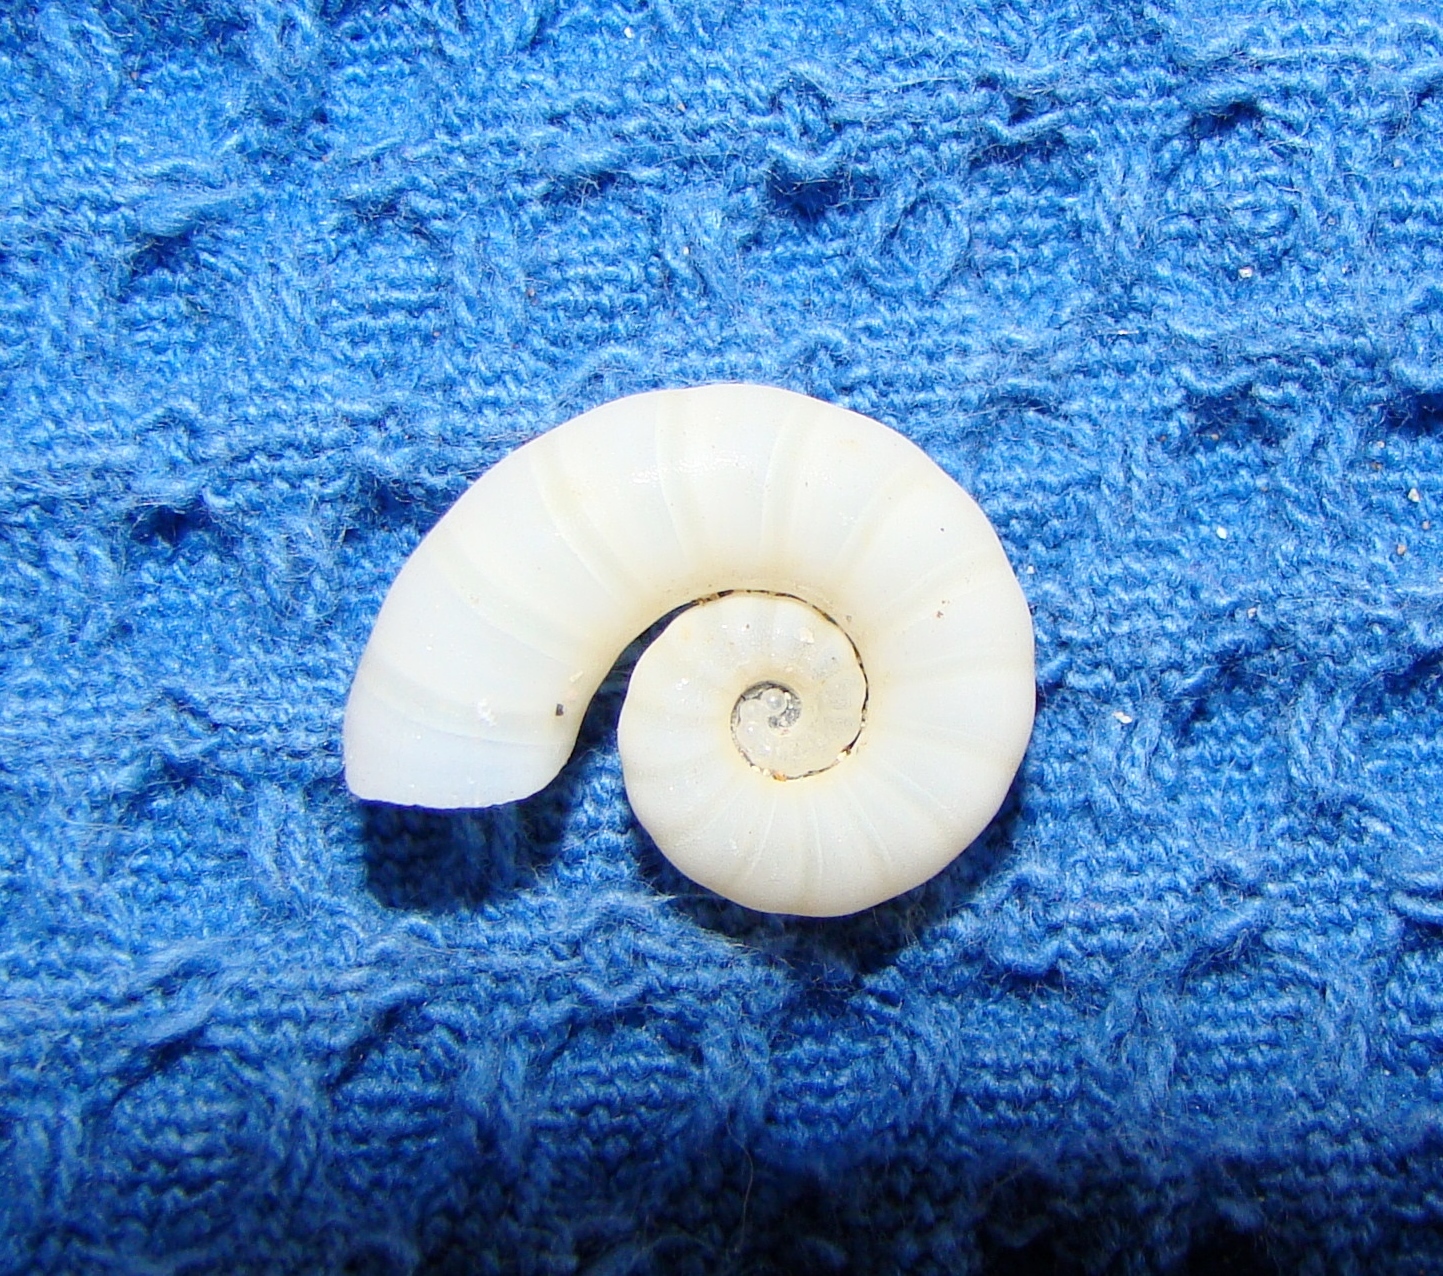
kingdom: Animalia
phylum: Mollusca
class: Cephalopoda
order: Spirulida
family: Spirulidae
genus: Spirula
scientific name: Spirula spirula
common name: Ram's horn squid
